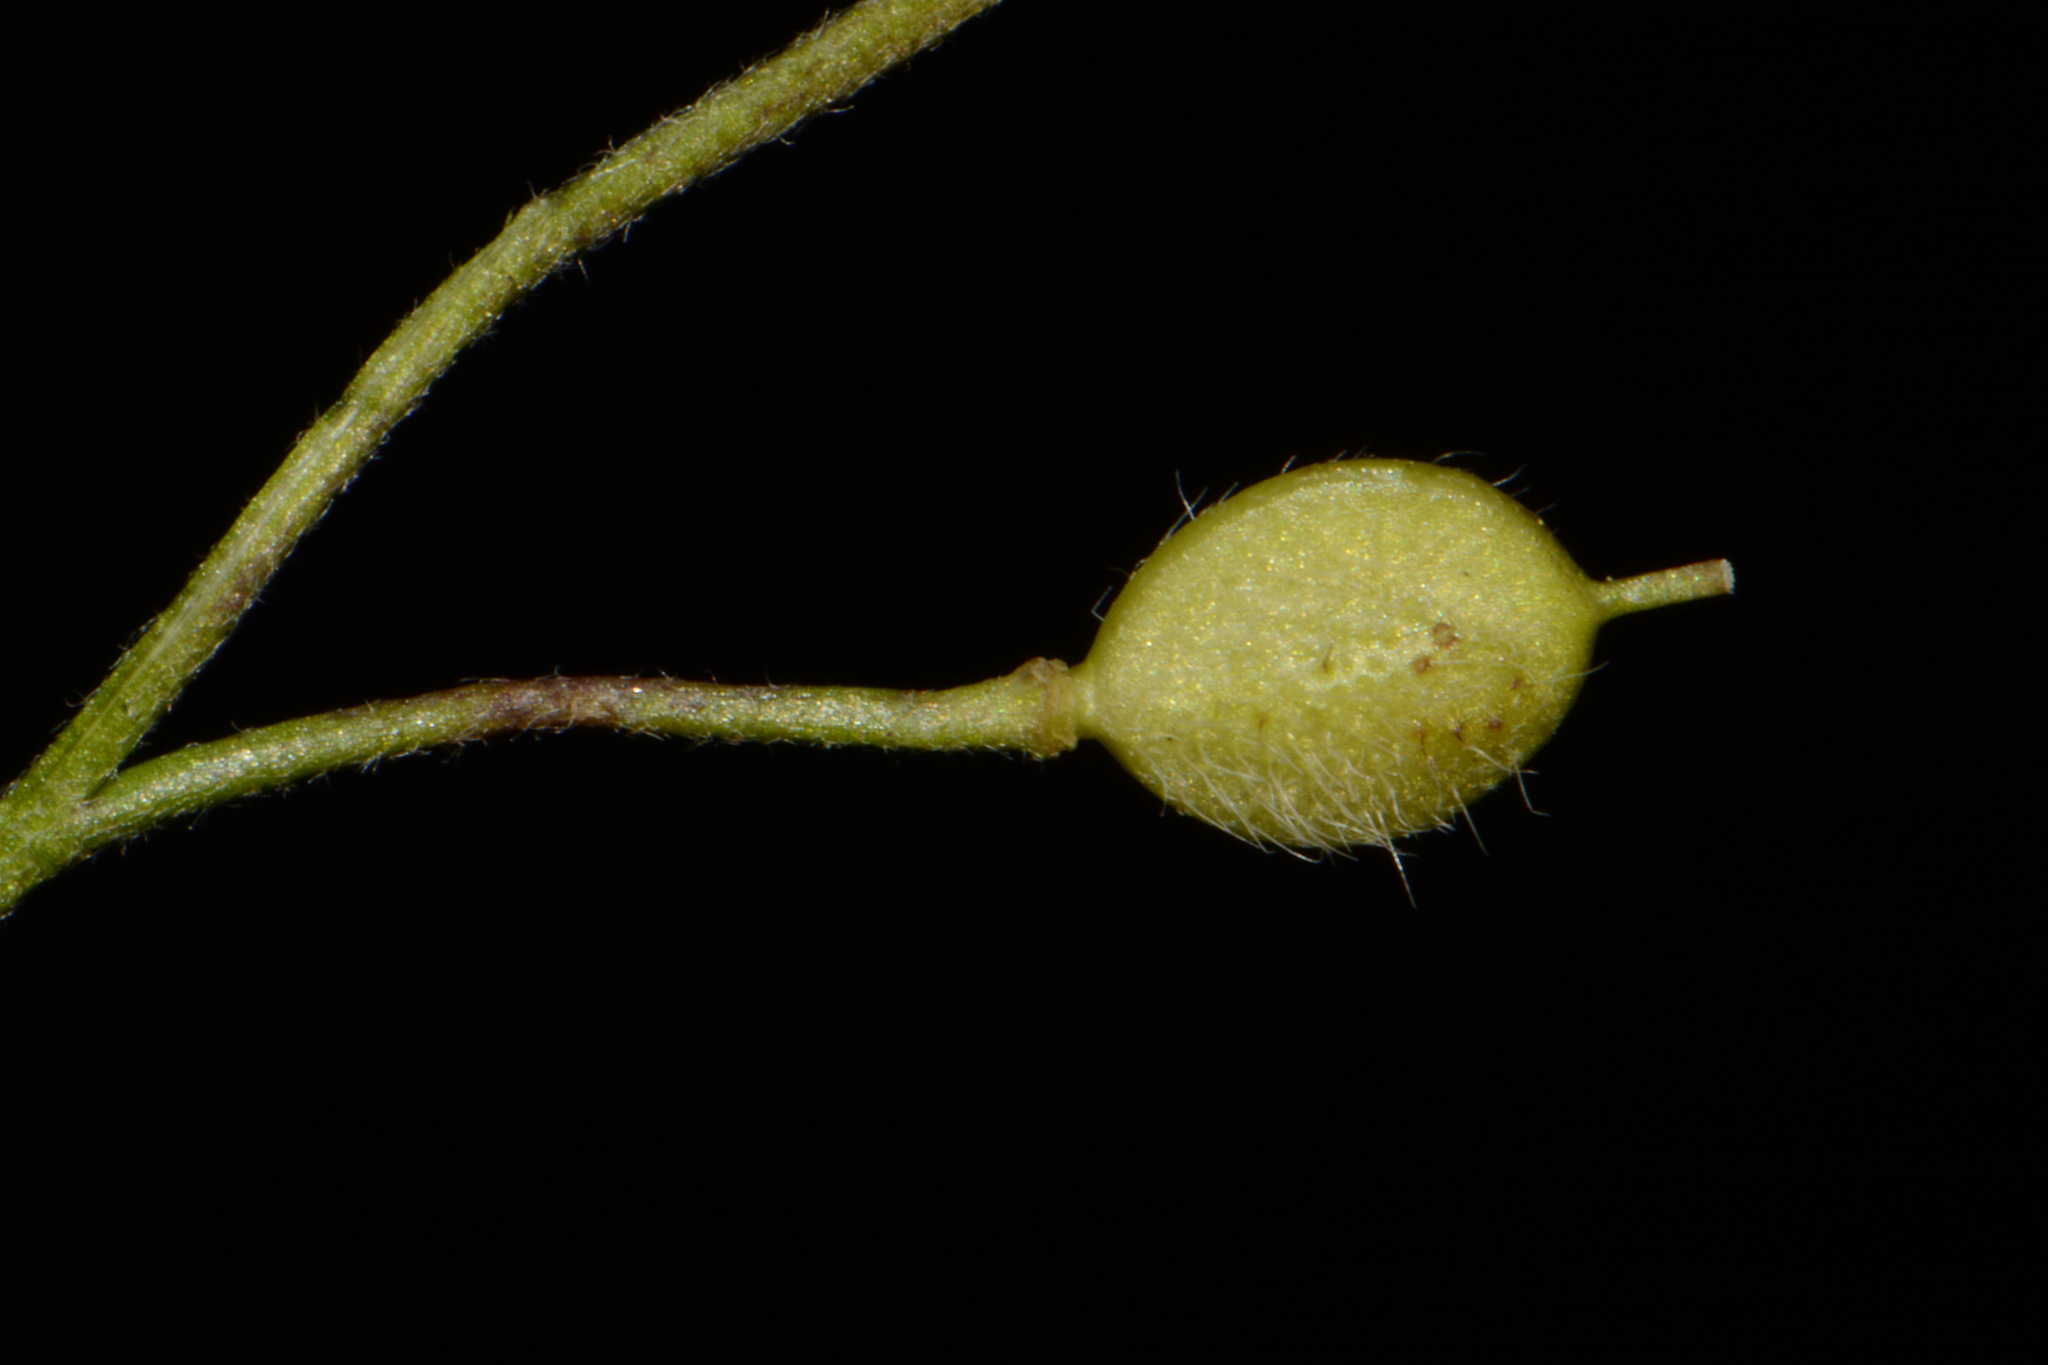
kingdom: Plantae
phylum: Tracheophyta
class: Magnoliopsida
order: Brassicales
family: Brassicaceae
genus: Paysonia
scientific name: Paysonia lescurii
